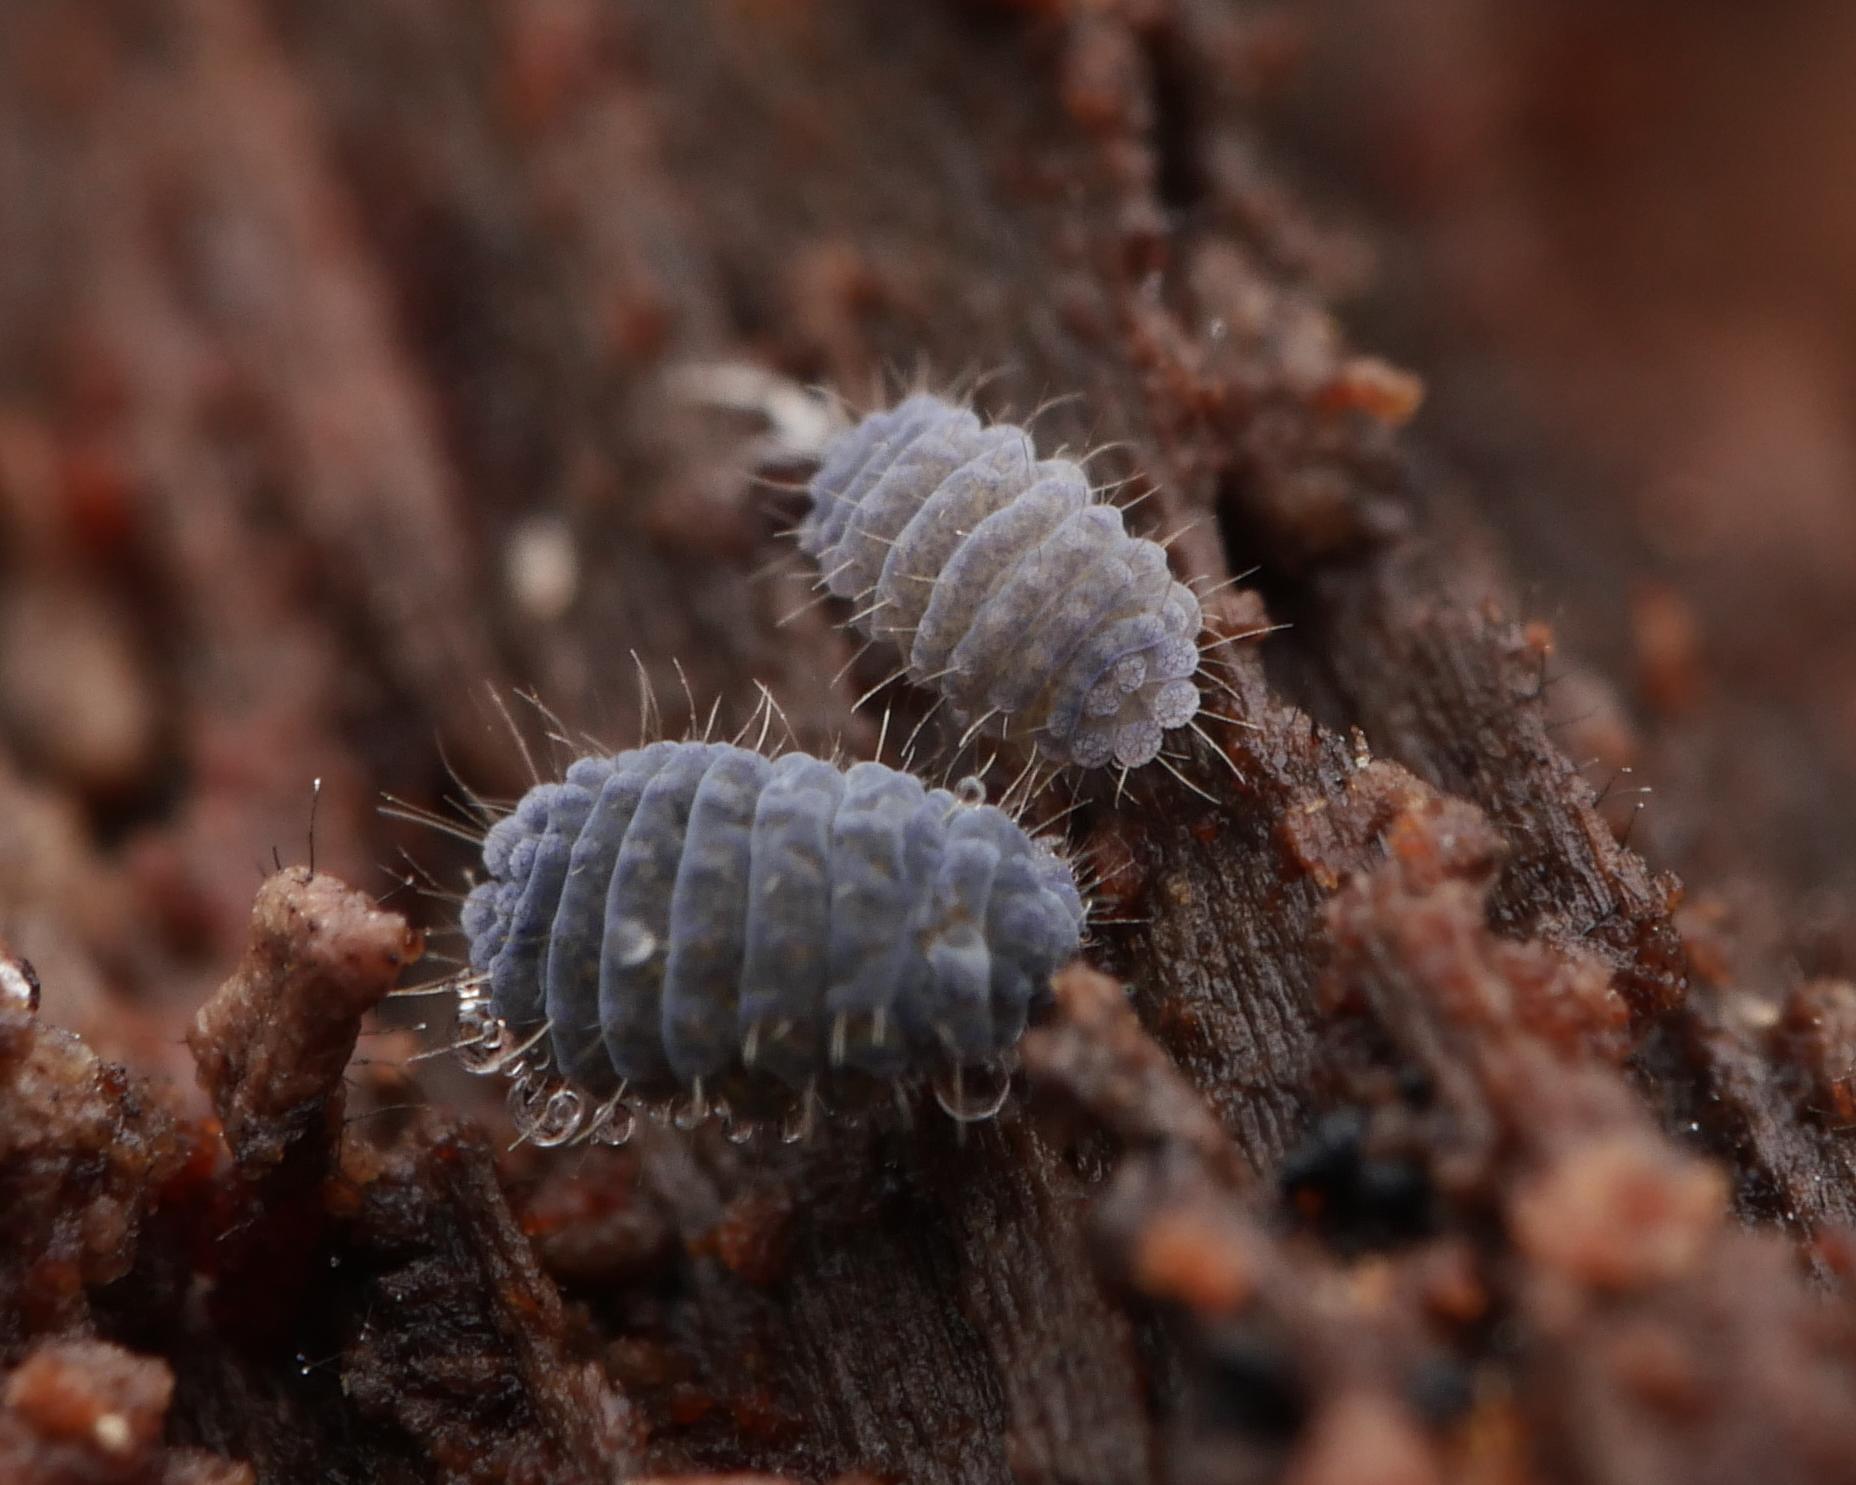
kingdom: Animalia
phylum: Arthropoda
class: Collembola
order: Poduromorpha
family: Neanuridae
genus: Neanura
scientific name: Neanura muscorum
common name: Springtail
